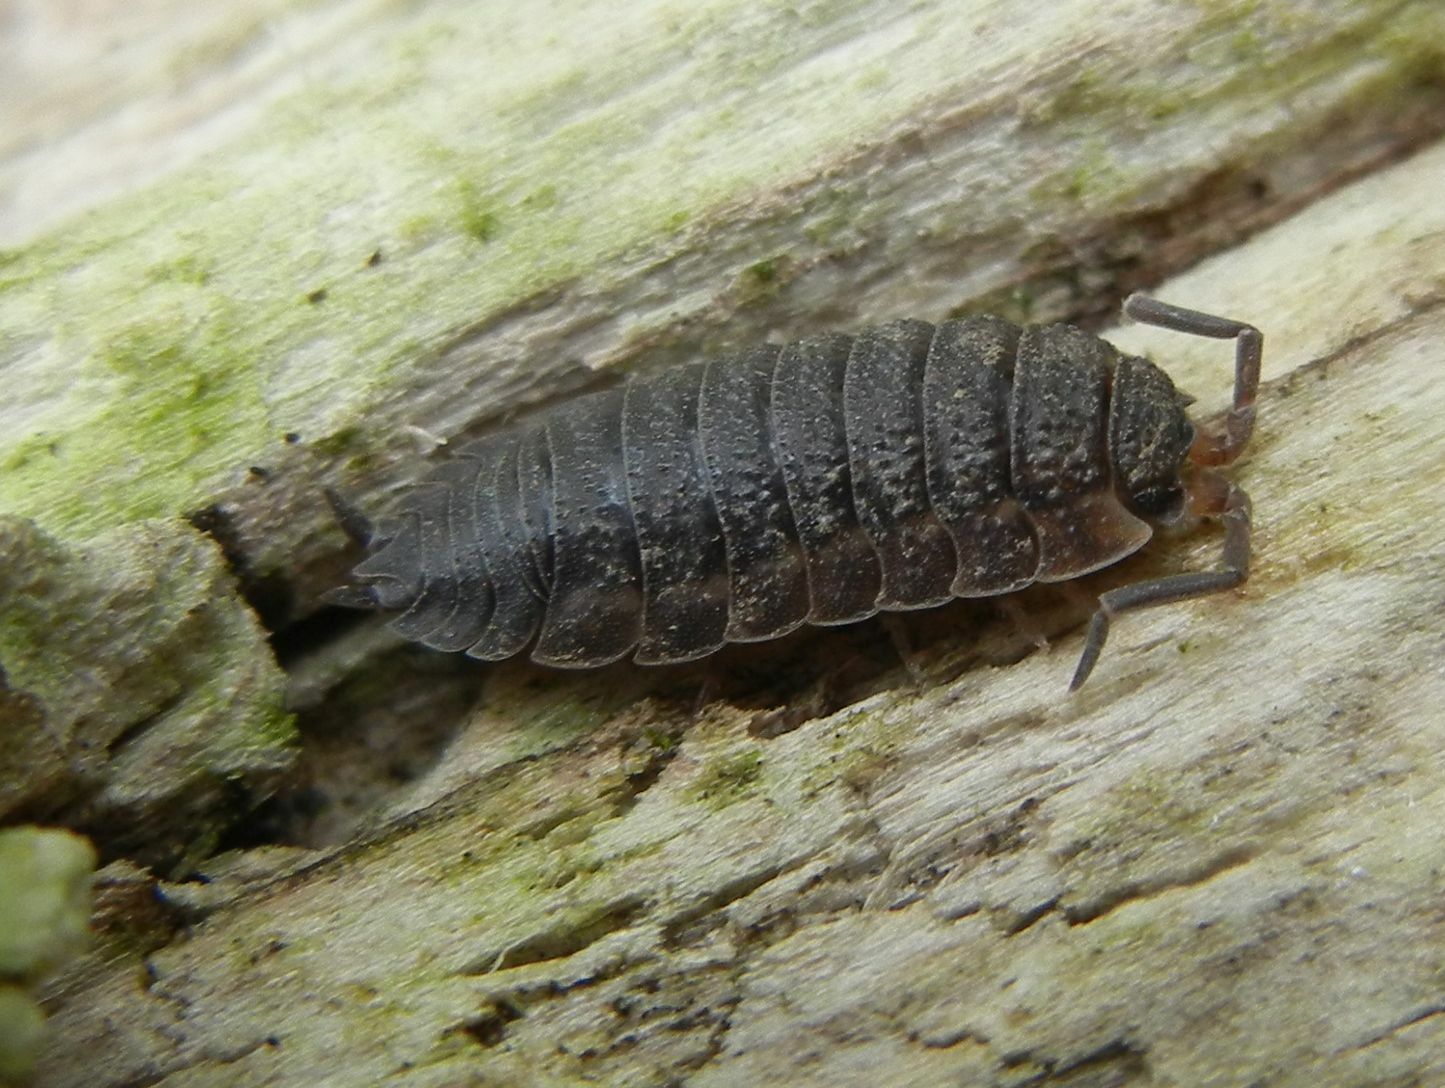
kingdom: Animalia
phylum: Arthropoda
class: Malacostraca
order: Isopoda
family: Porcellionidae
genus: Porcellio
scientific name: Porcellio scaber
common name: Common rough woodlouse
